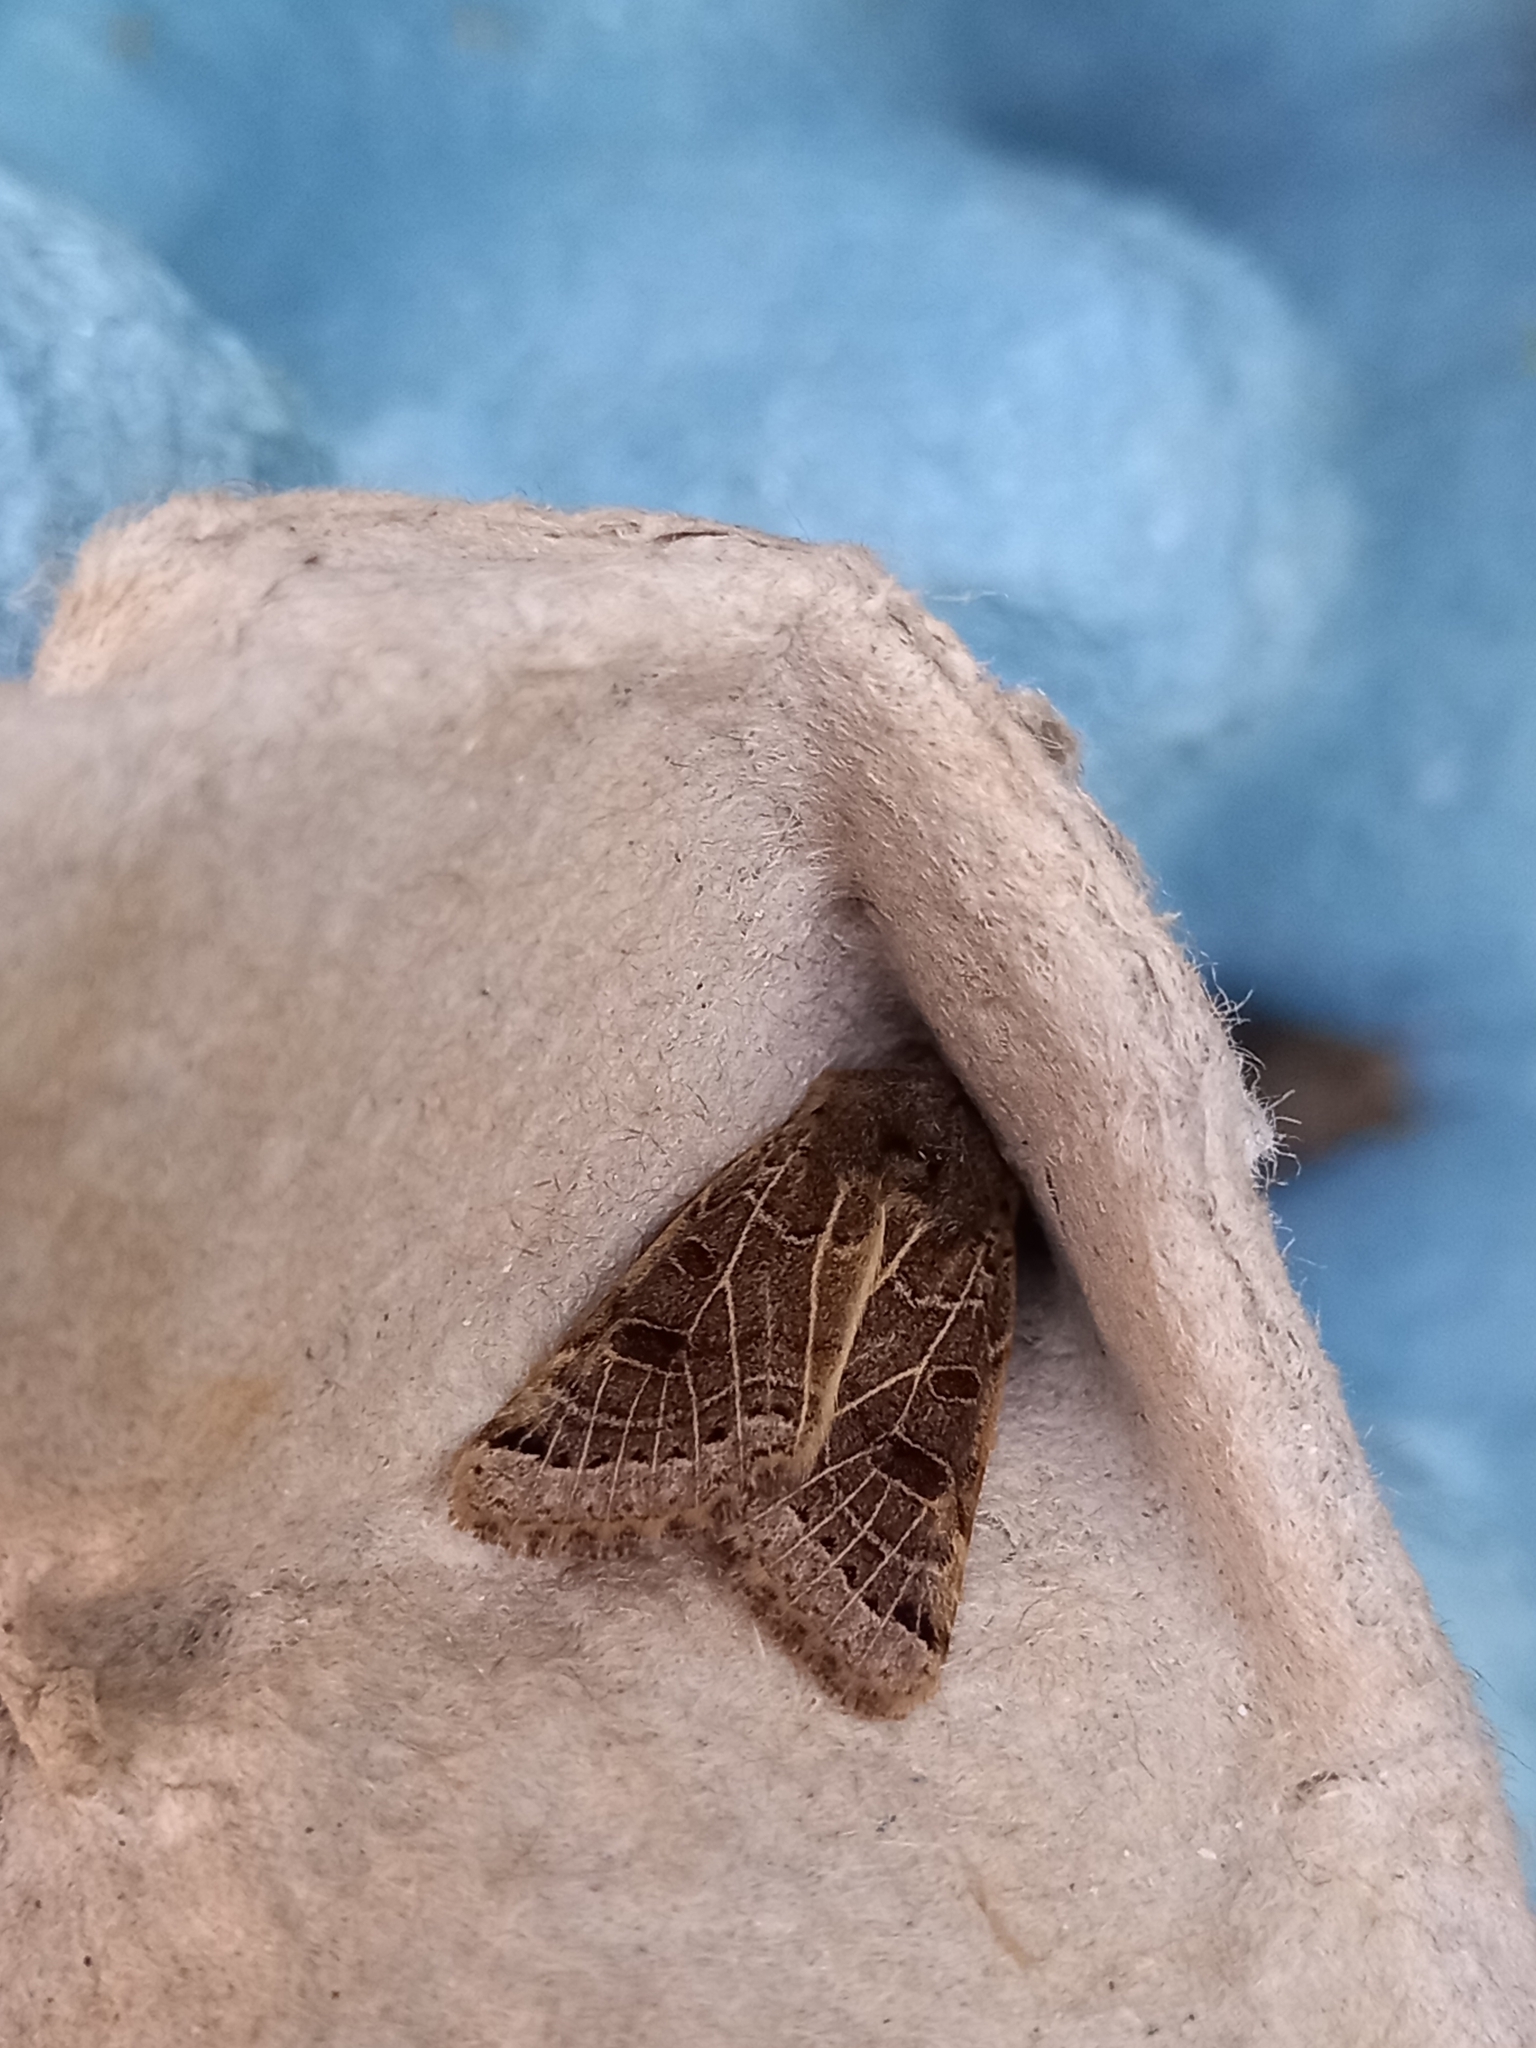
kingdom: Animalia
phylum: Arthropoda
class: Insecta
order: Lepidoptera
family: Noctuidae
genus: Agrochola
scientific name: Agrochola lunosa
